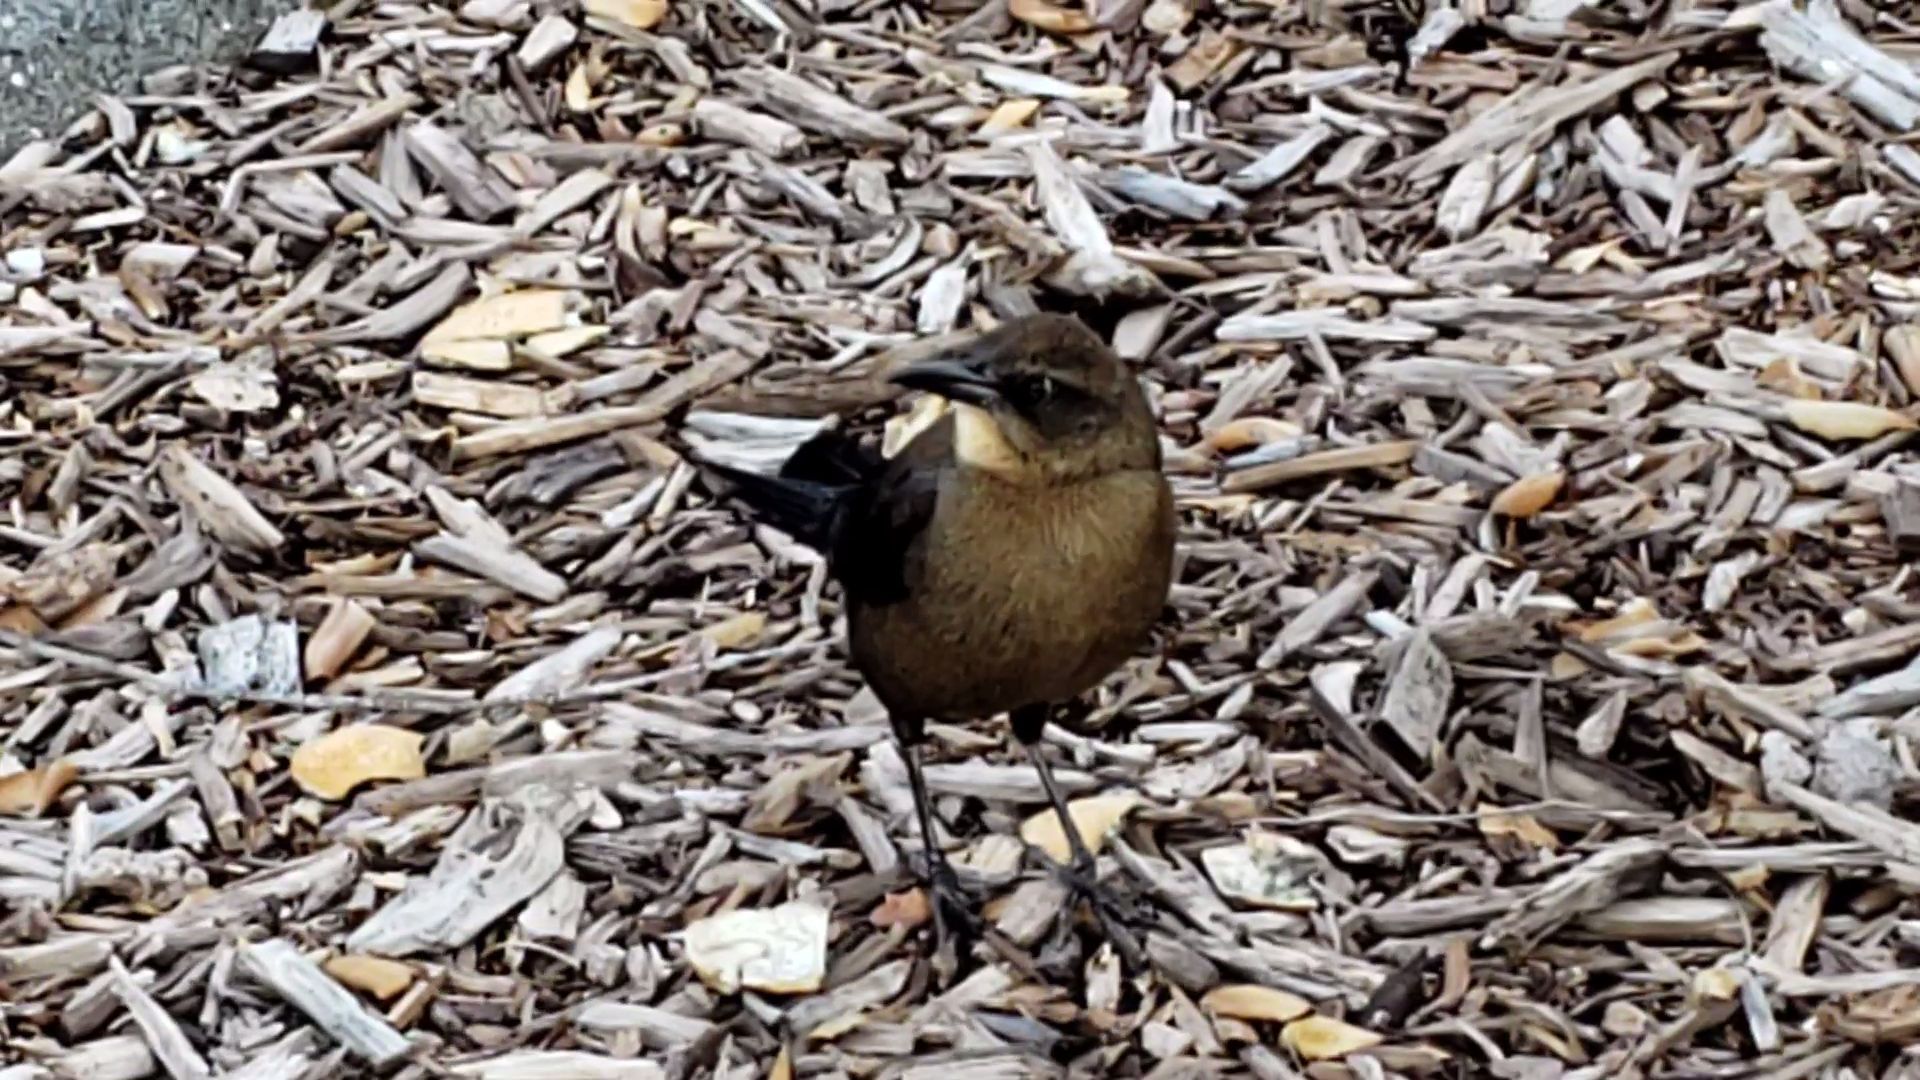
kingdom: Animalia
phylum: Chordata
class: Aves
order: Passeriformes
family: Icteridae
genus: Quiscalus
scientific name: Quiscalus mexicanus
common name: Great-tailed grackle
